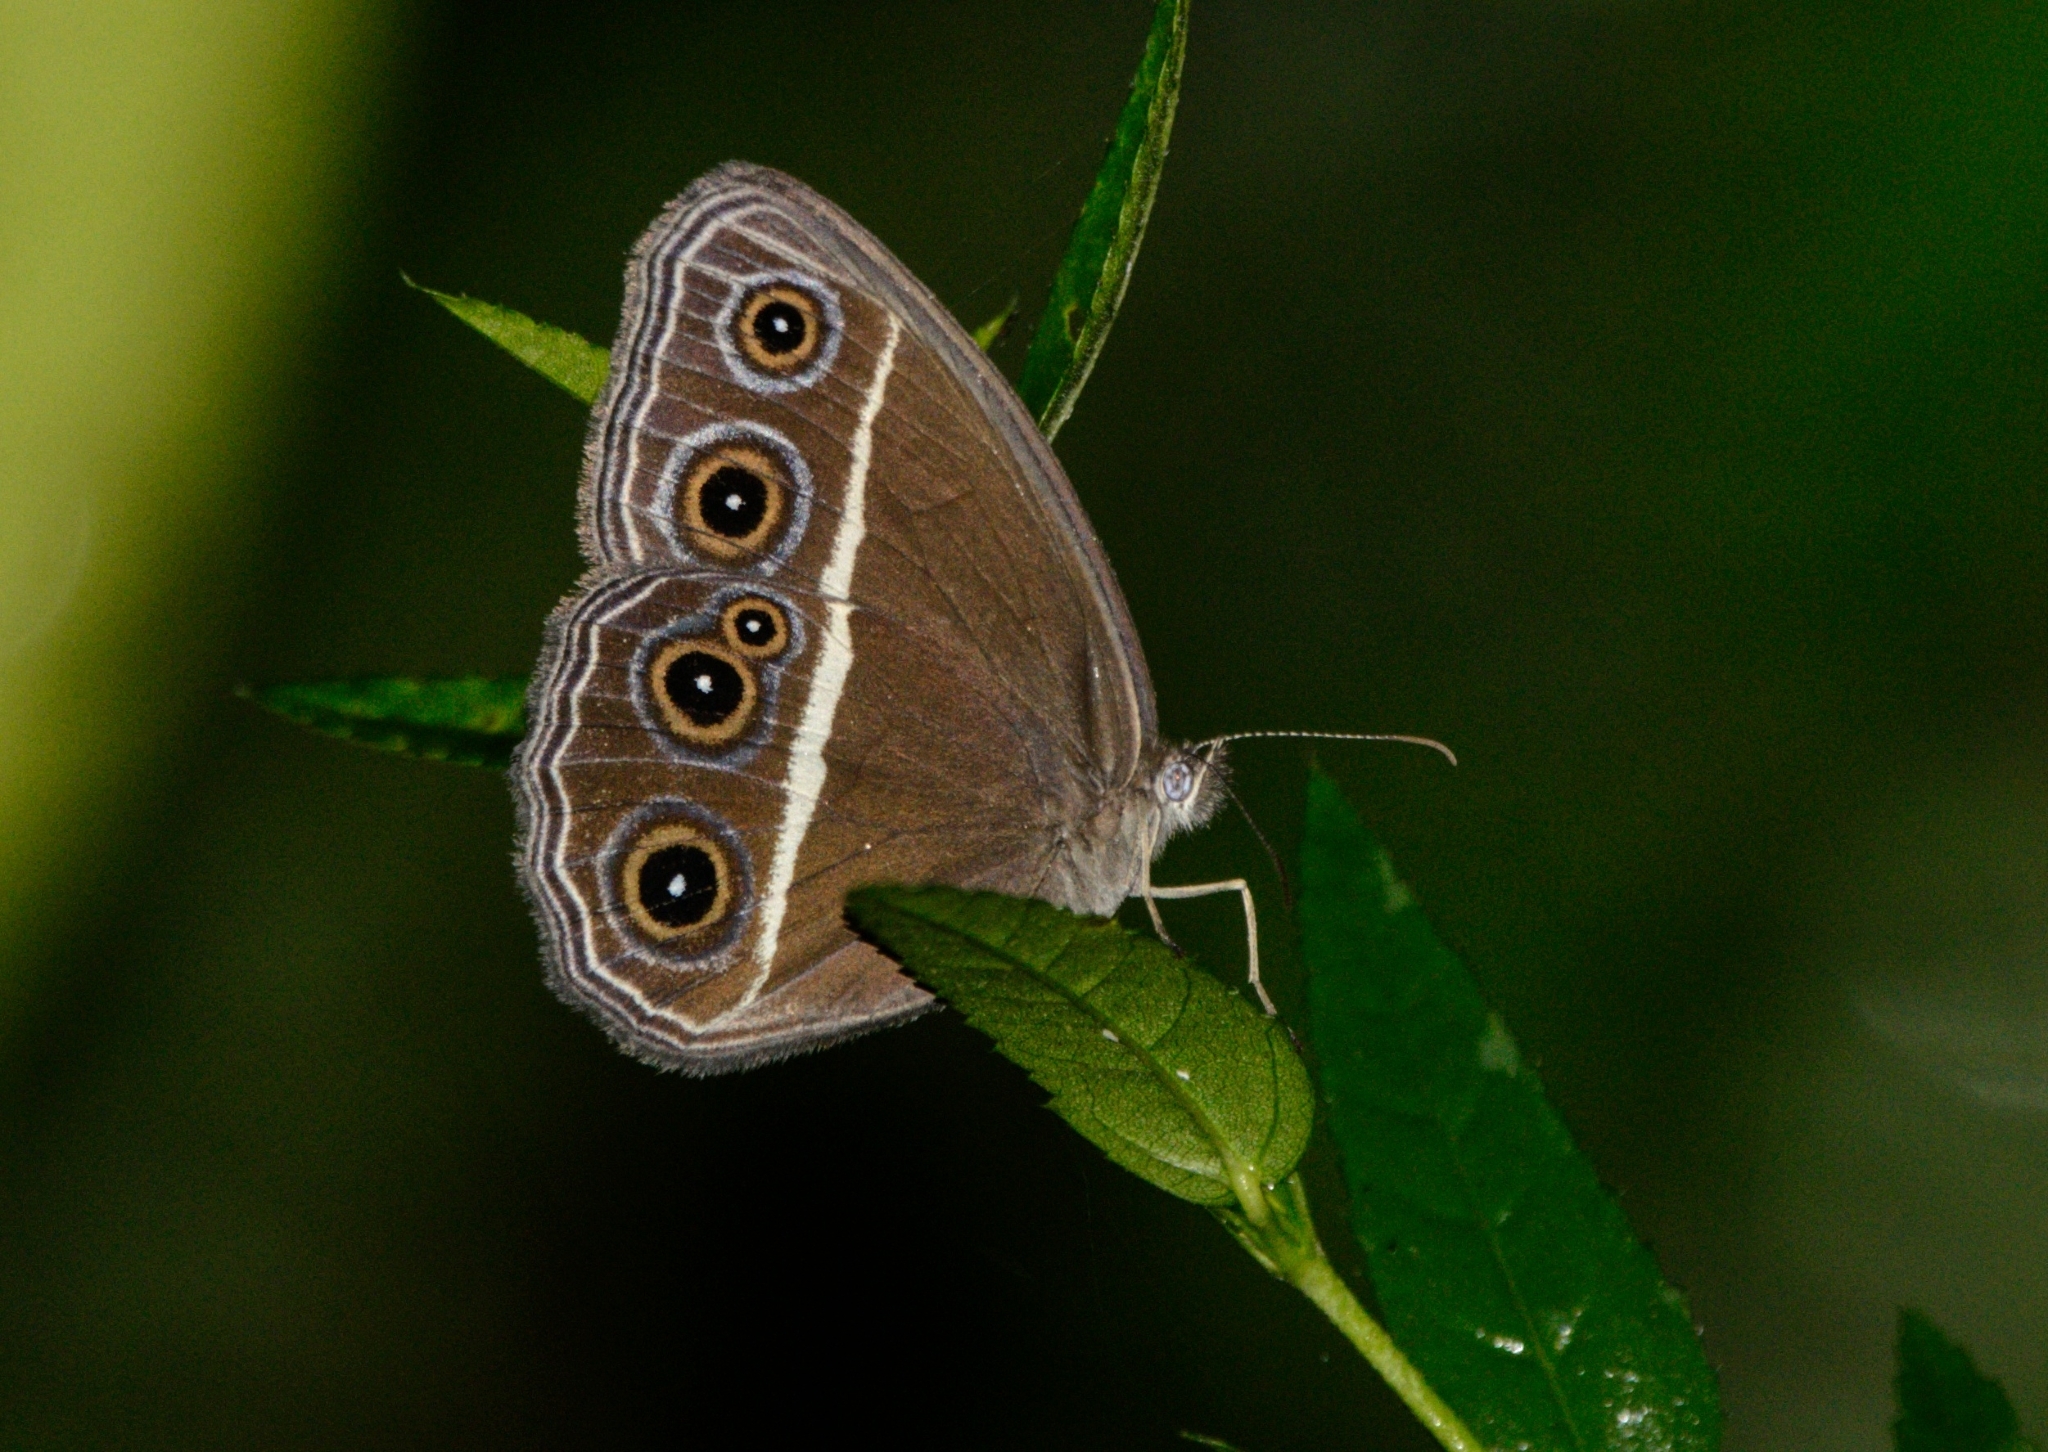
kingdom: Animalia
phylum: Arthropoda
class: Insecta
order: Lepidoptera
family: Nymphalidae
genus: Orsotriaena
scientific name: Orsotriaena medus
